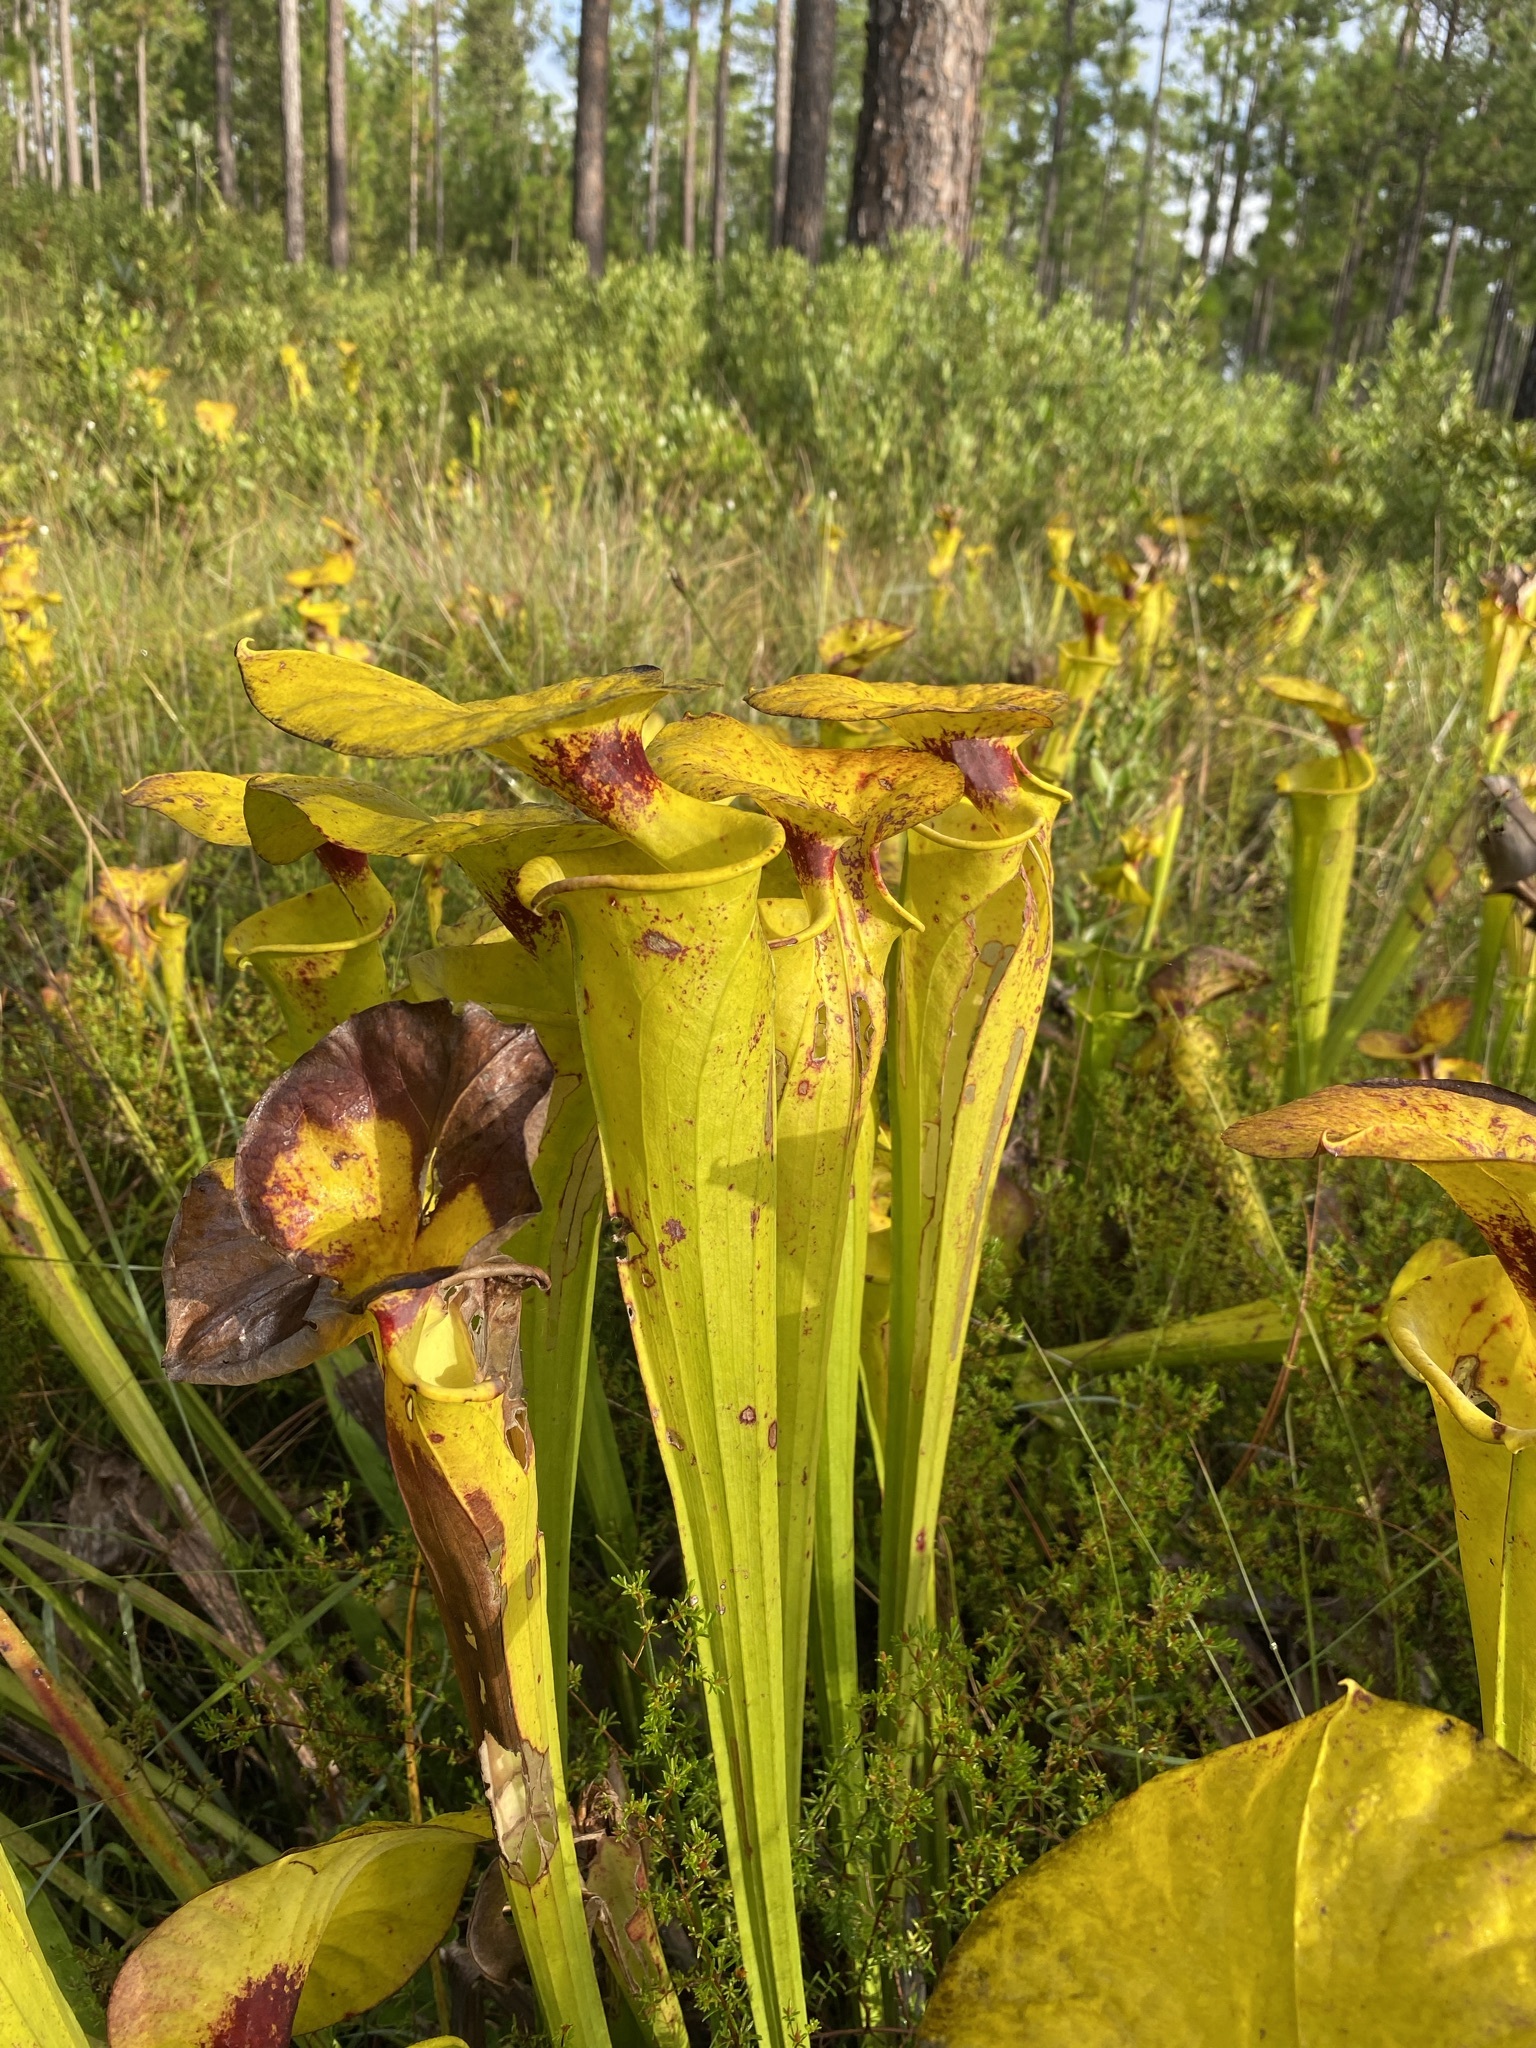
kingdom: Plantae
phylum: Tracheophyta
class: Magnoliopsida
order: Ericales
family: Sarraceniaceae
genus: Sarracenia
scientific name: Sarracenia flava
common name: Trumpets
